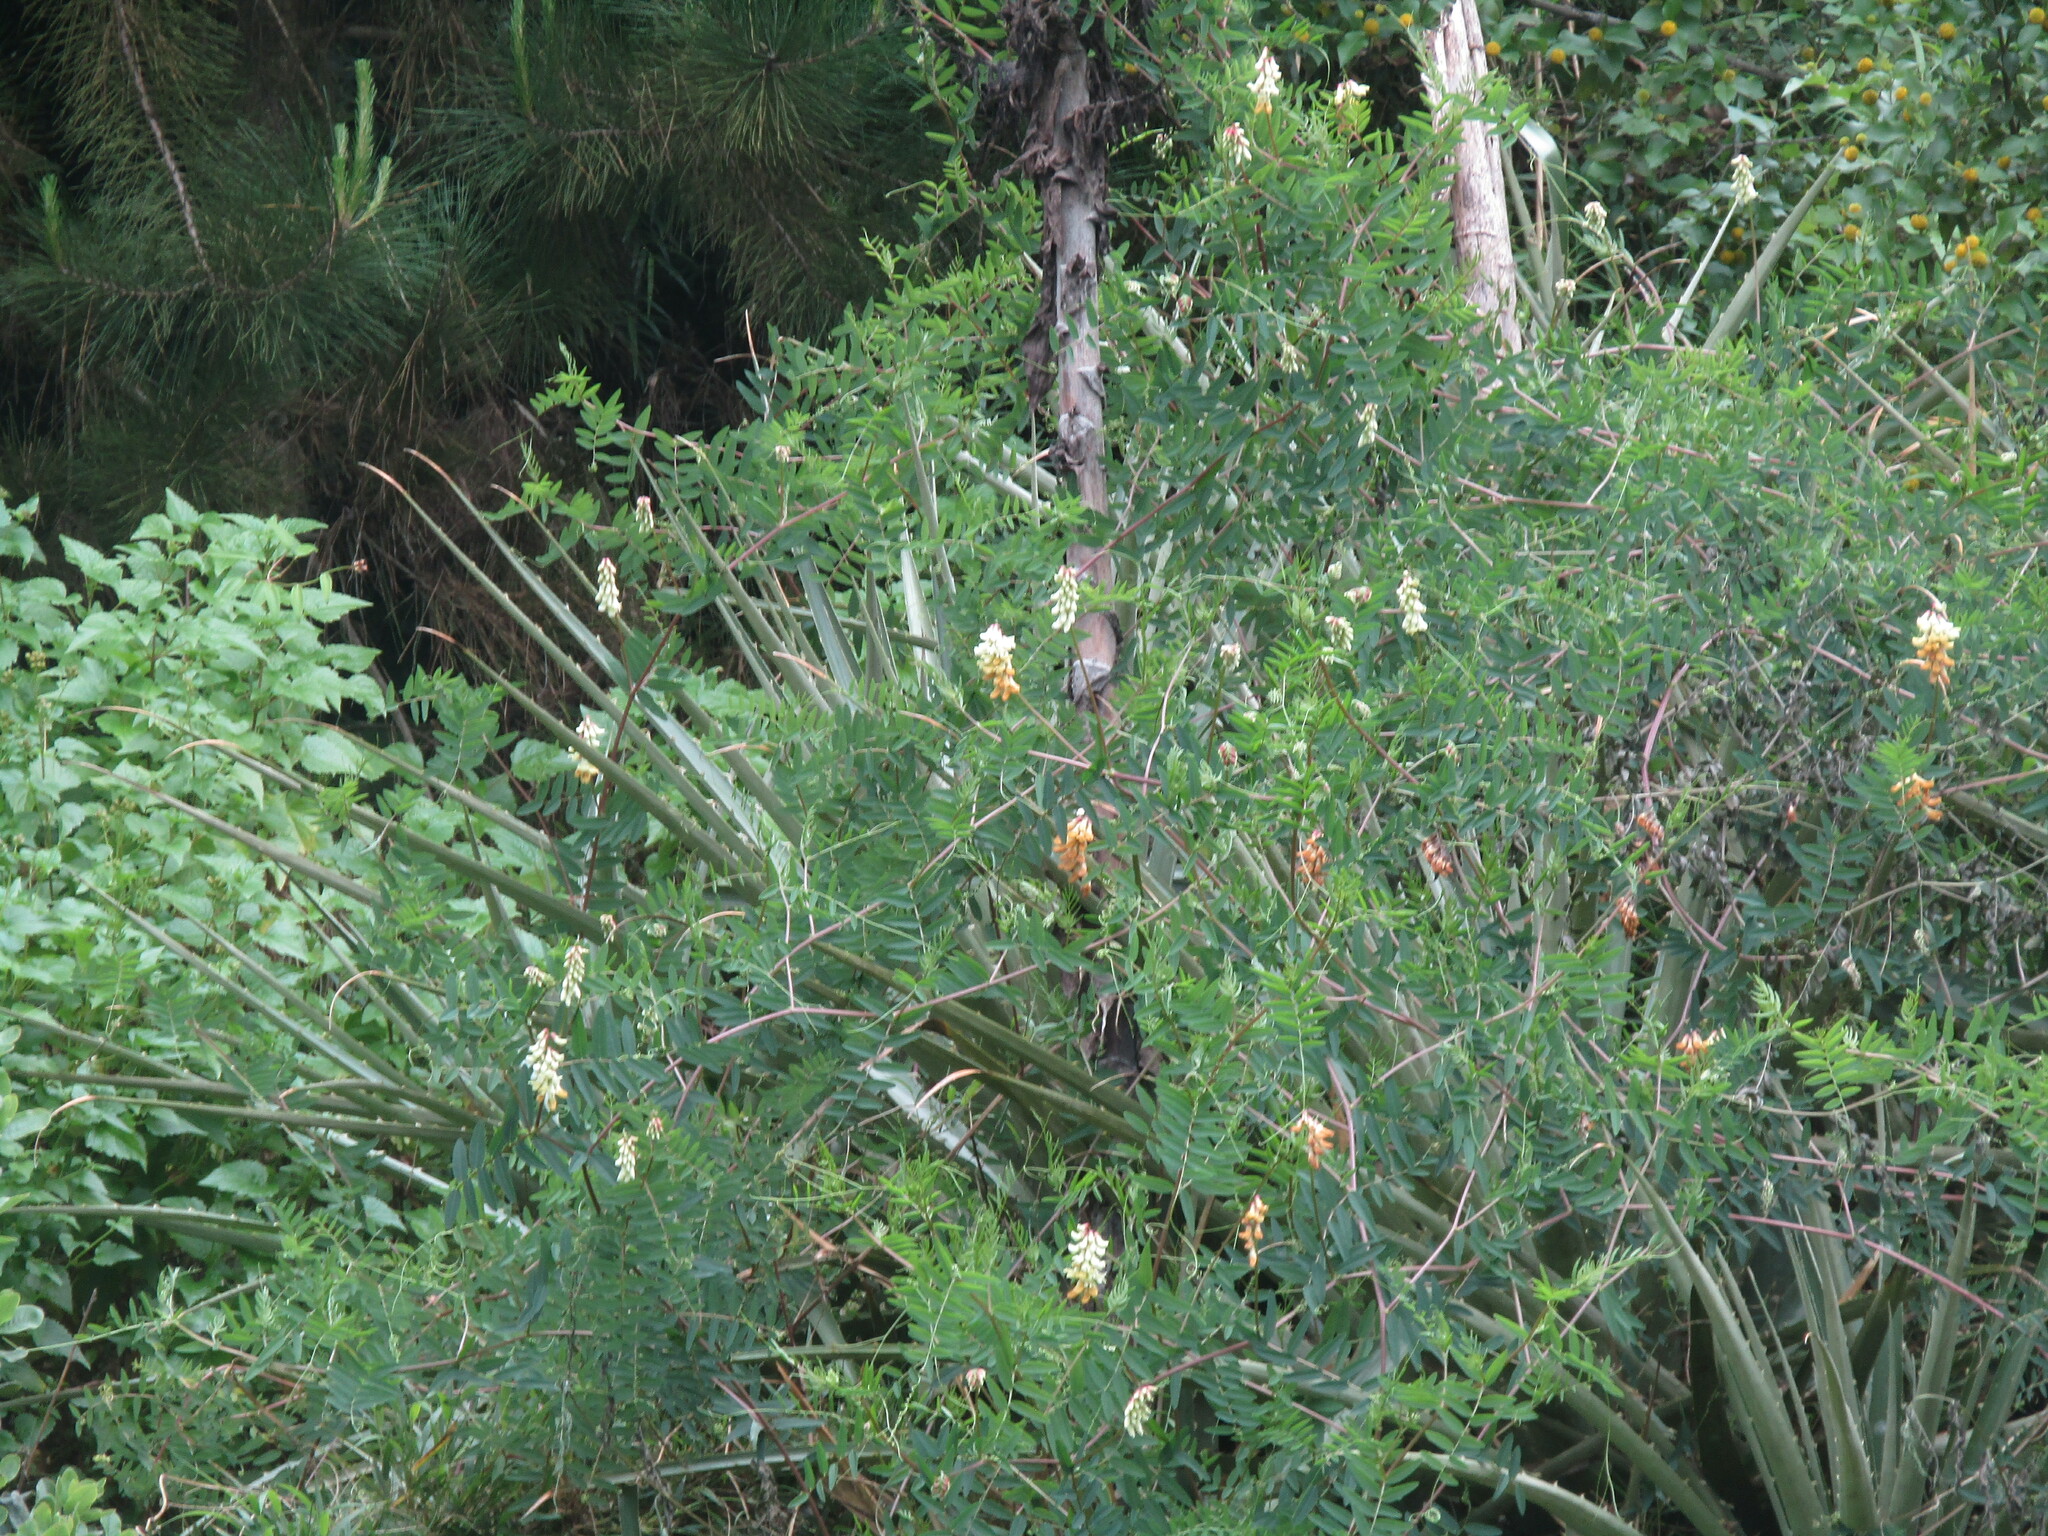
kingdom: Plantae
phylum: Tracheophyta
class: Magnoliopsida
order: Fabales
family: Fabaceae
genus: Vicia
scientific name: Vicia nigricans
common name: Black vetch
